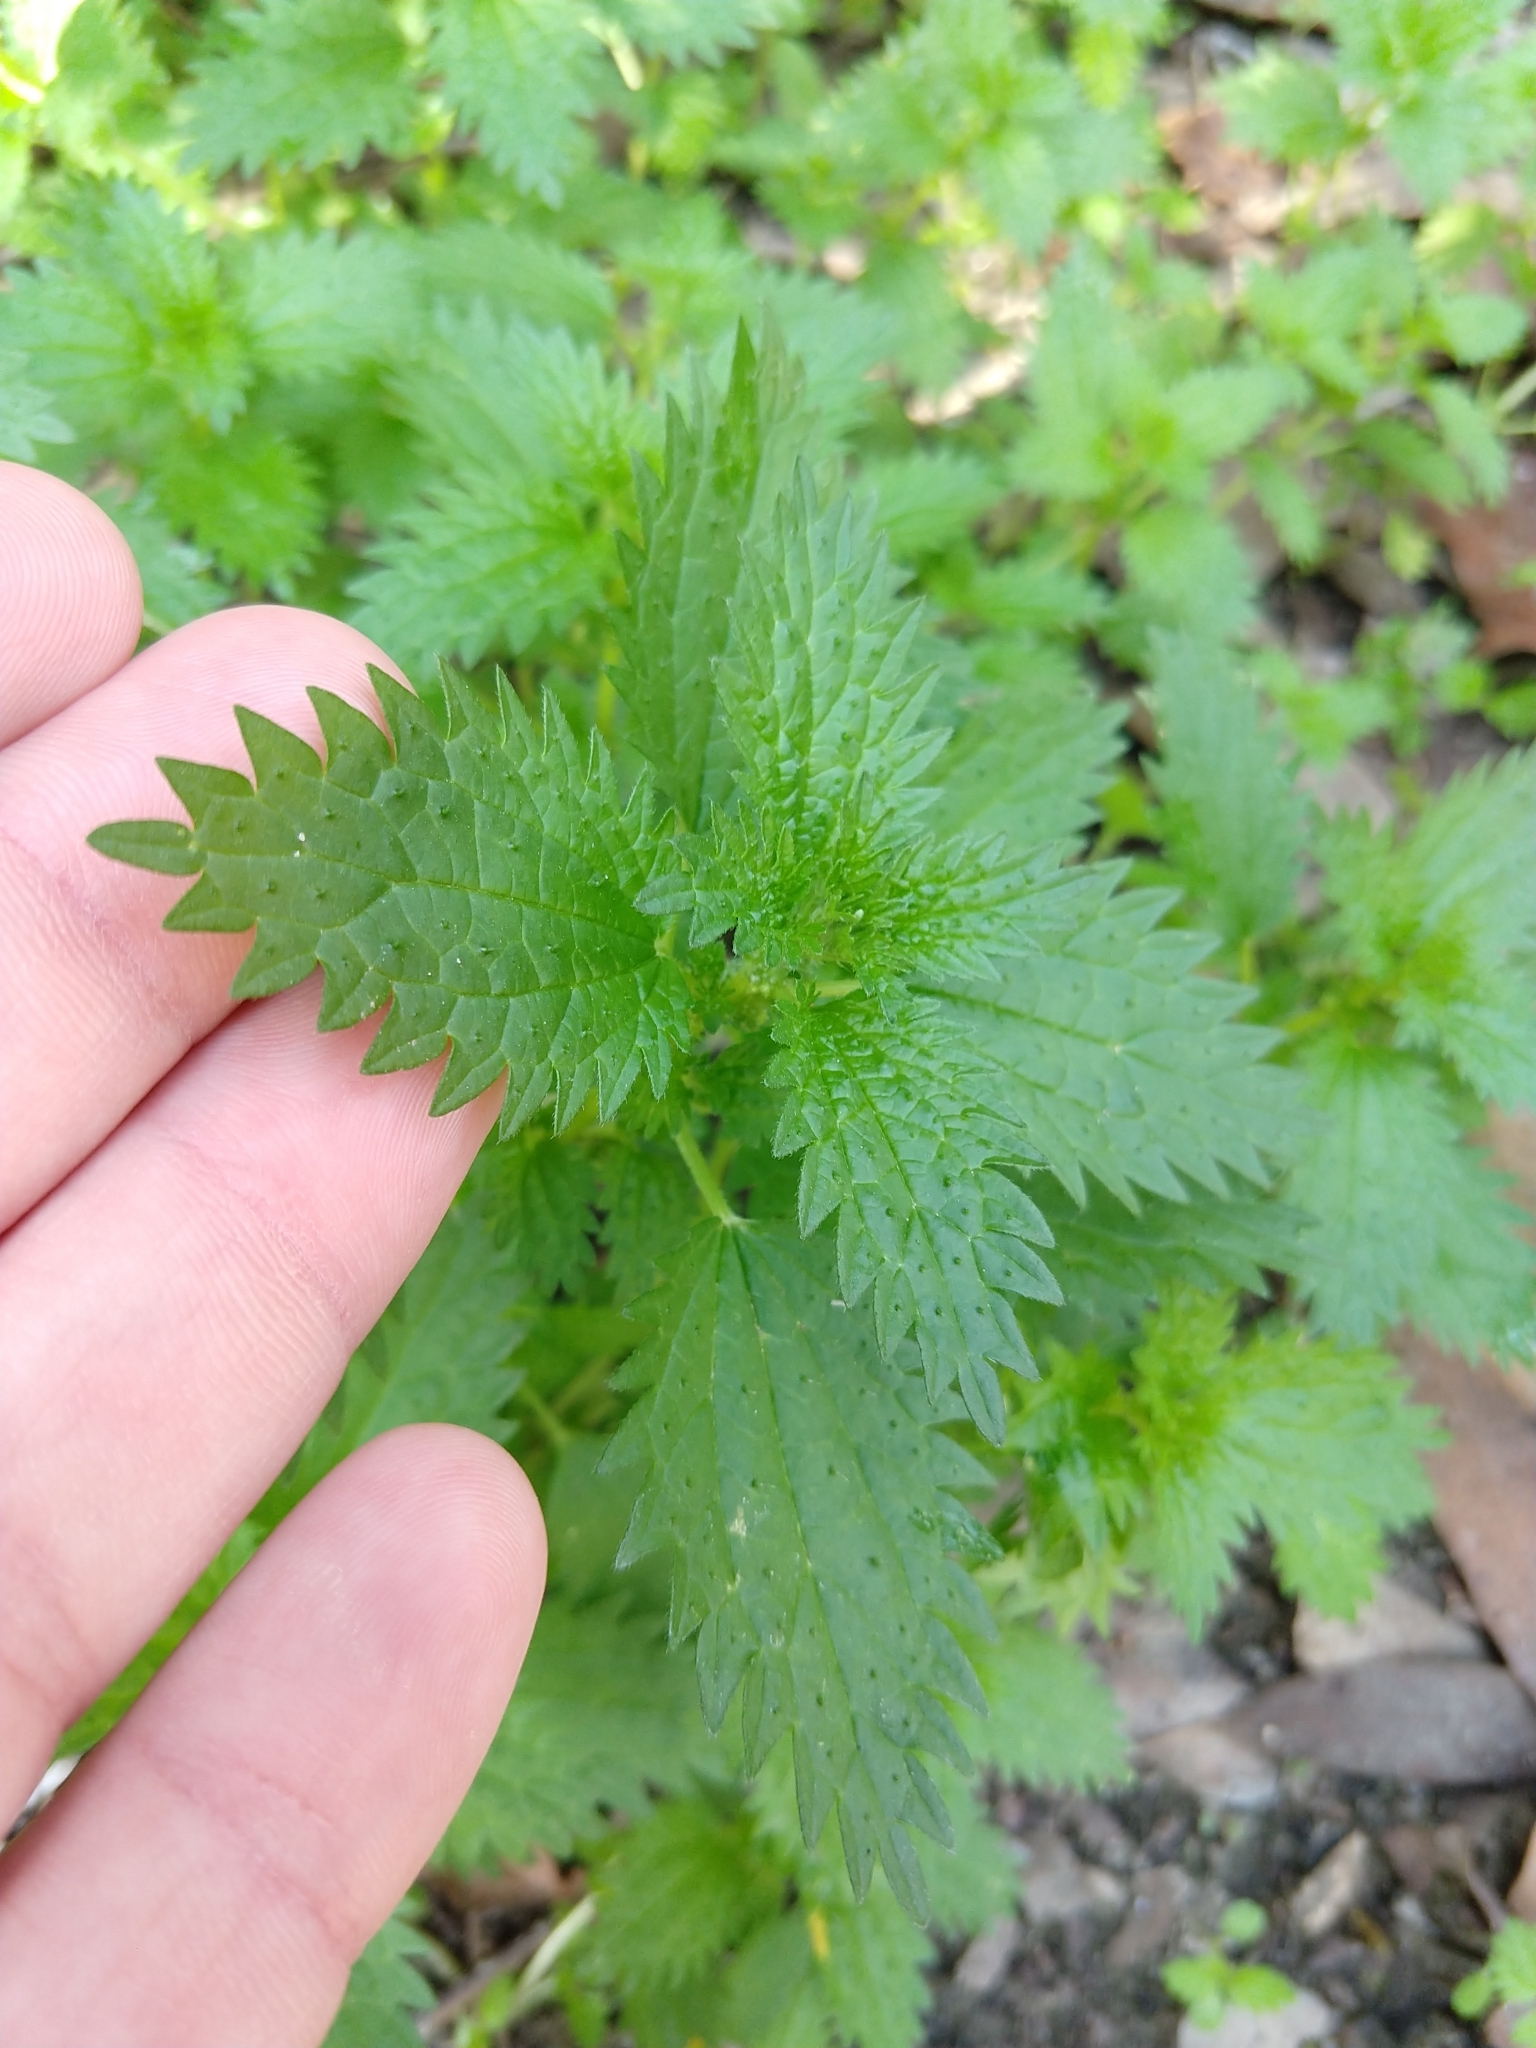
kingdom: Plantae
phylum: Tracheophyta
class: Magnoliopsida
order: Rosales
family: Urticaceae
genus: Urtica
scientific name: Urtica urens
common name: Dwarf nettle
